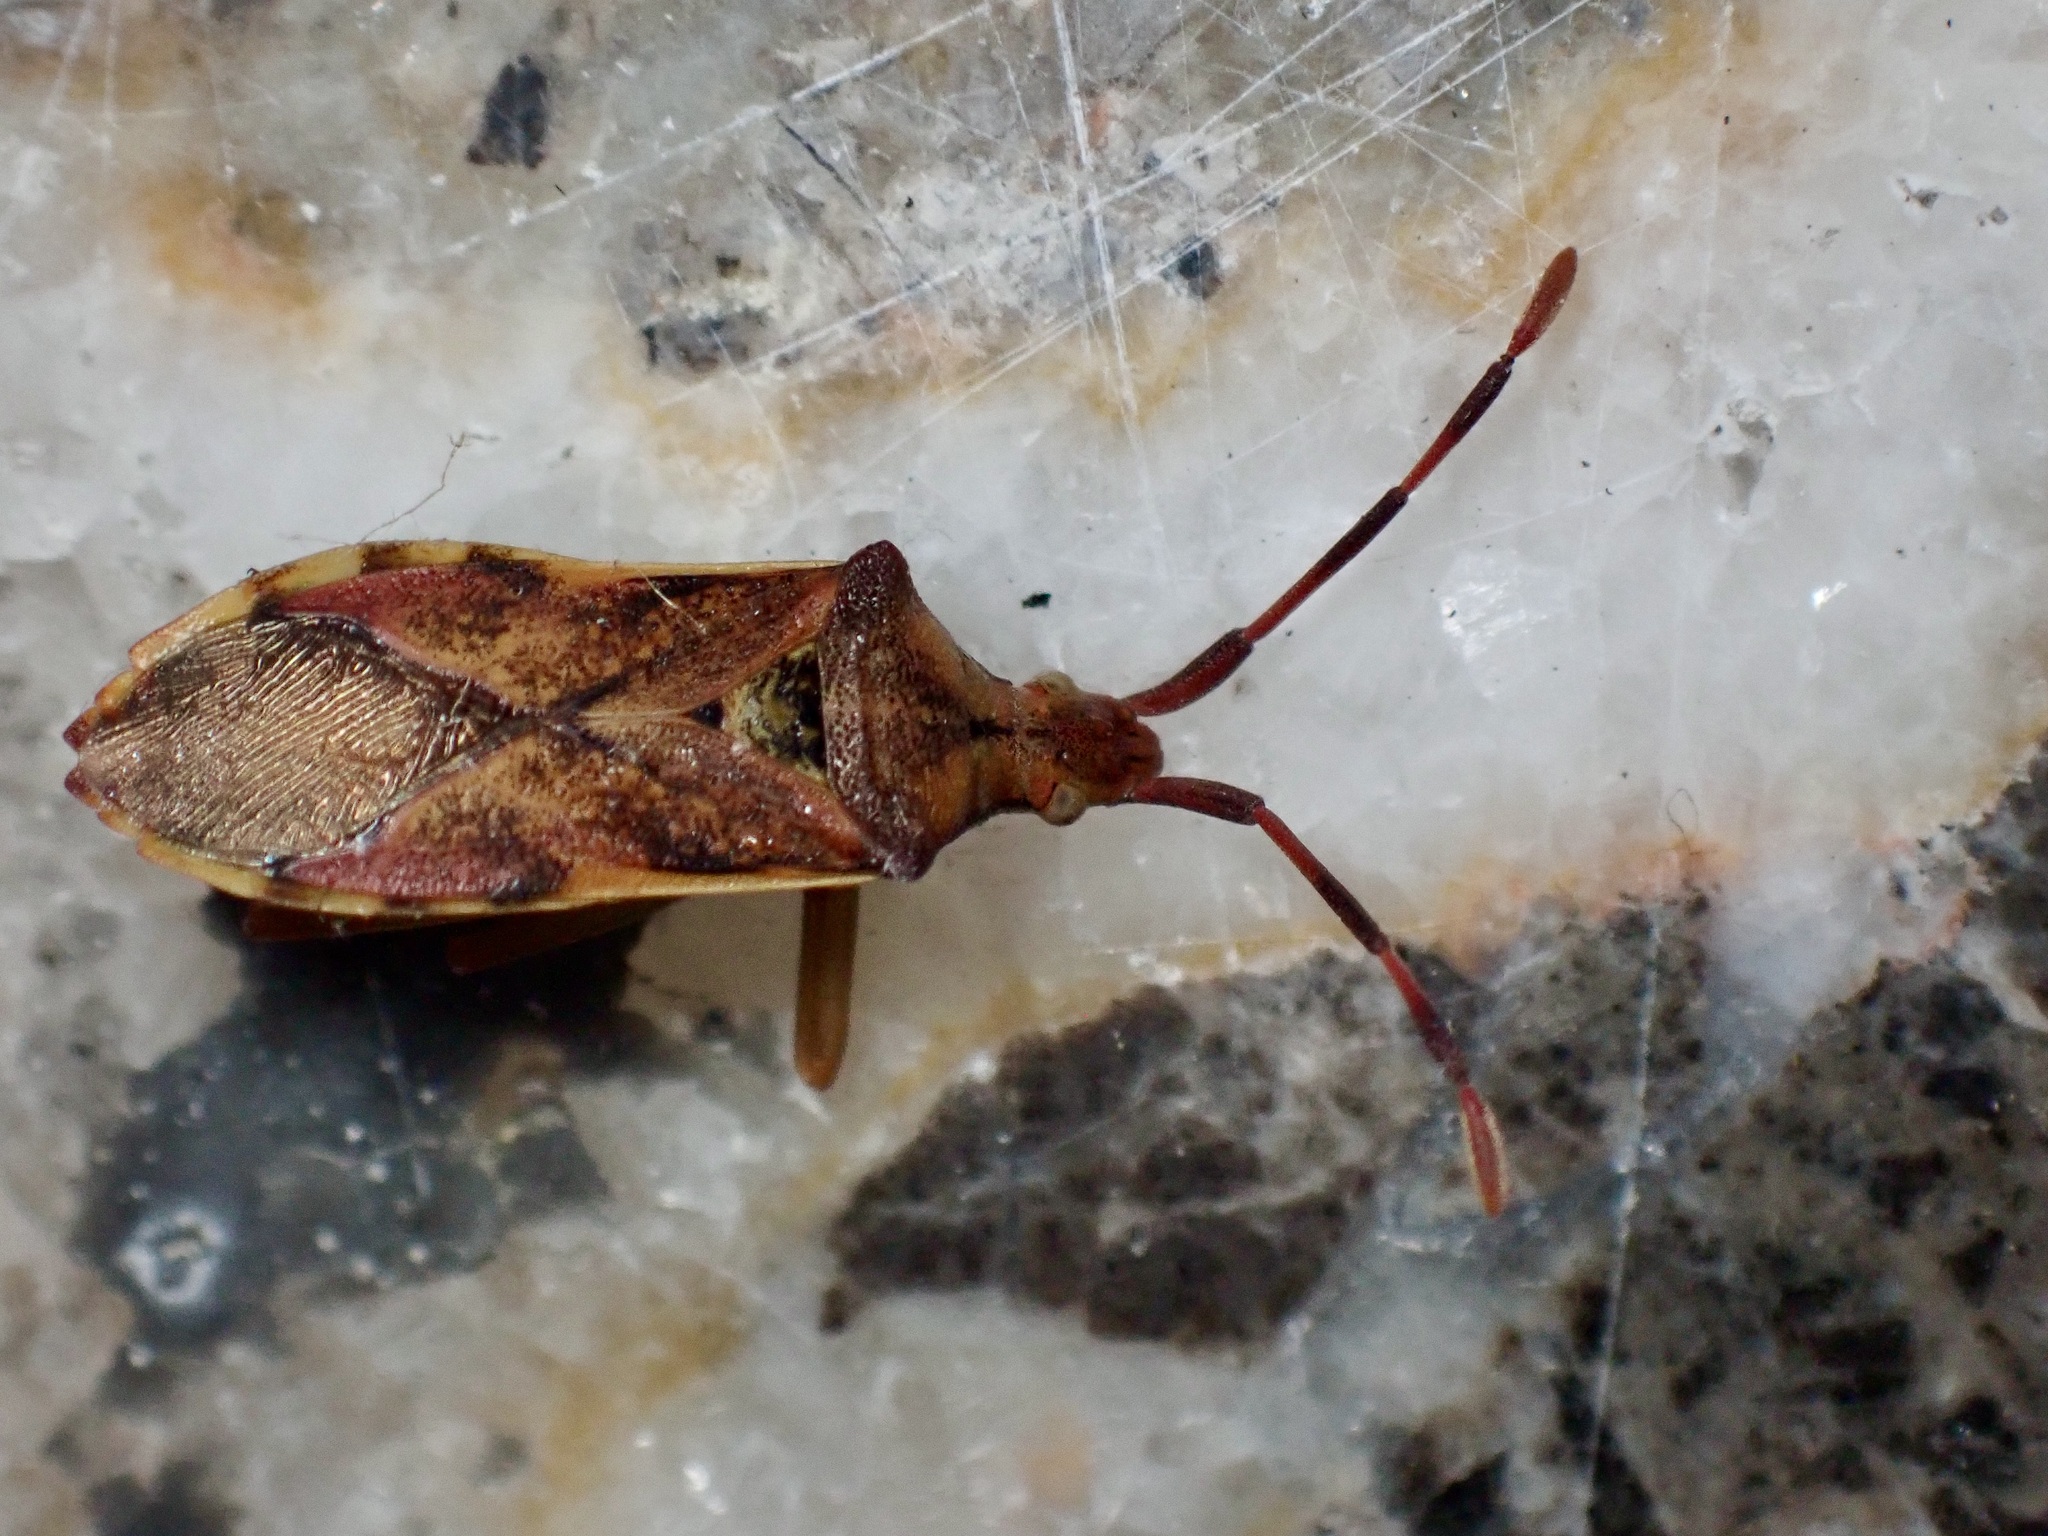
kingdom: Animalia
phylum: Arthropoda
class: Insecta
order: Hemiptera
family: Coreidae
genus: Gonocerus
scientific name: Gonocerus juniperi
